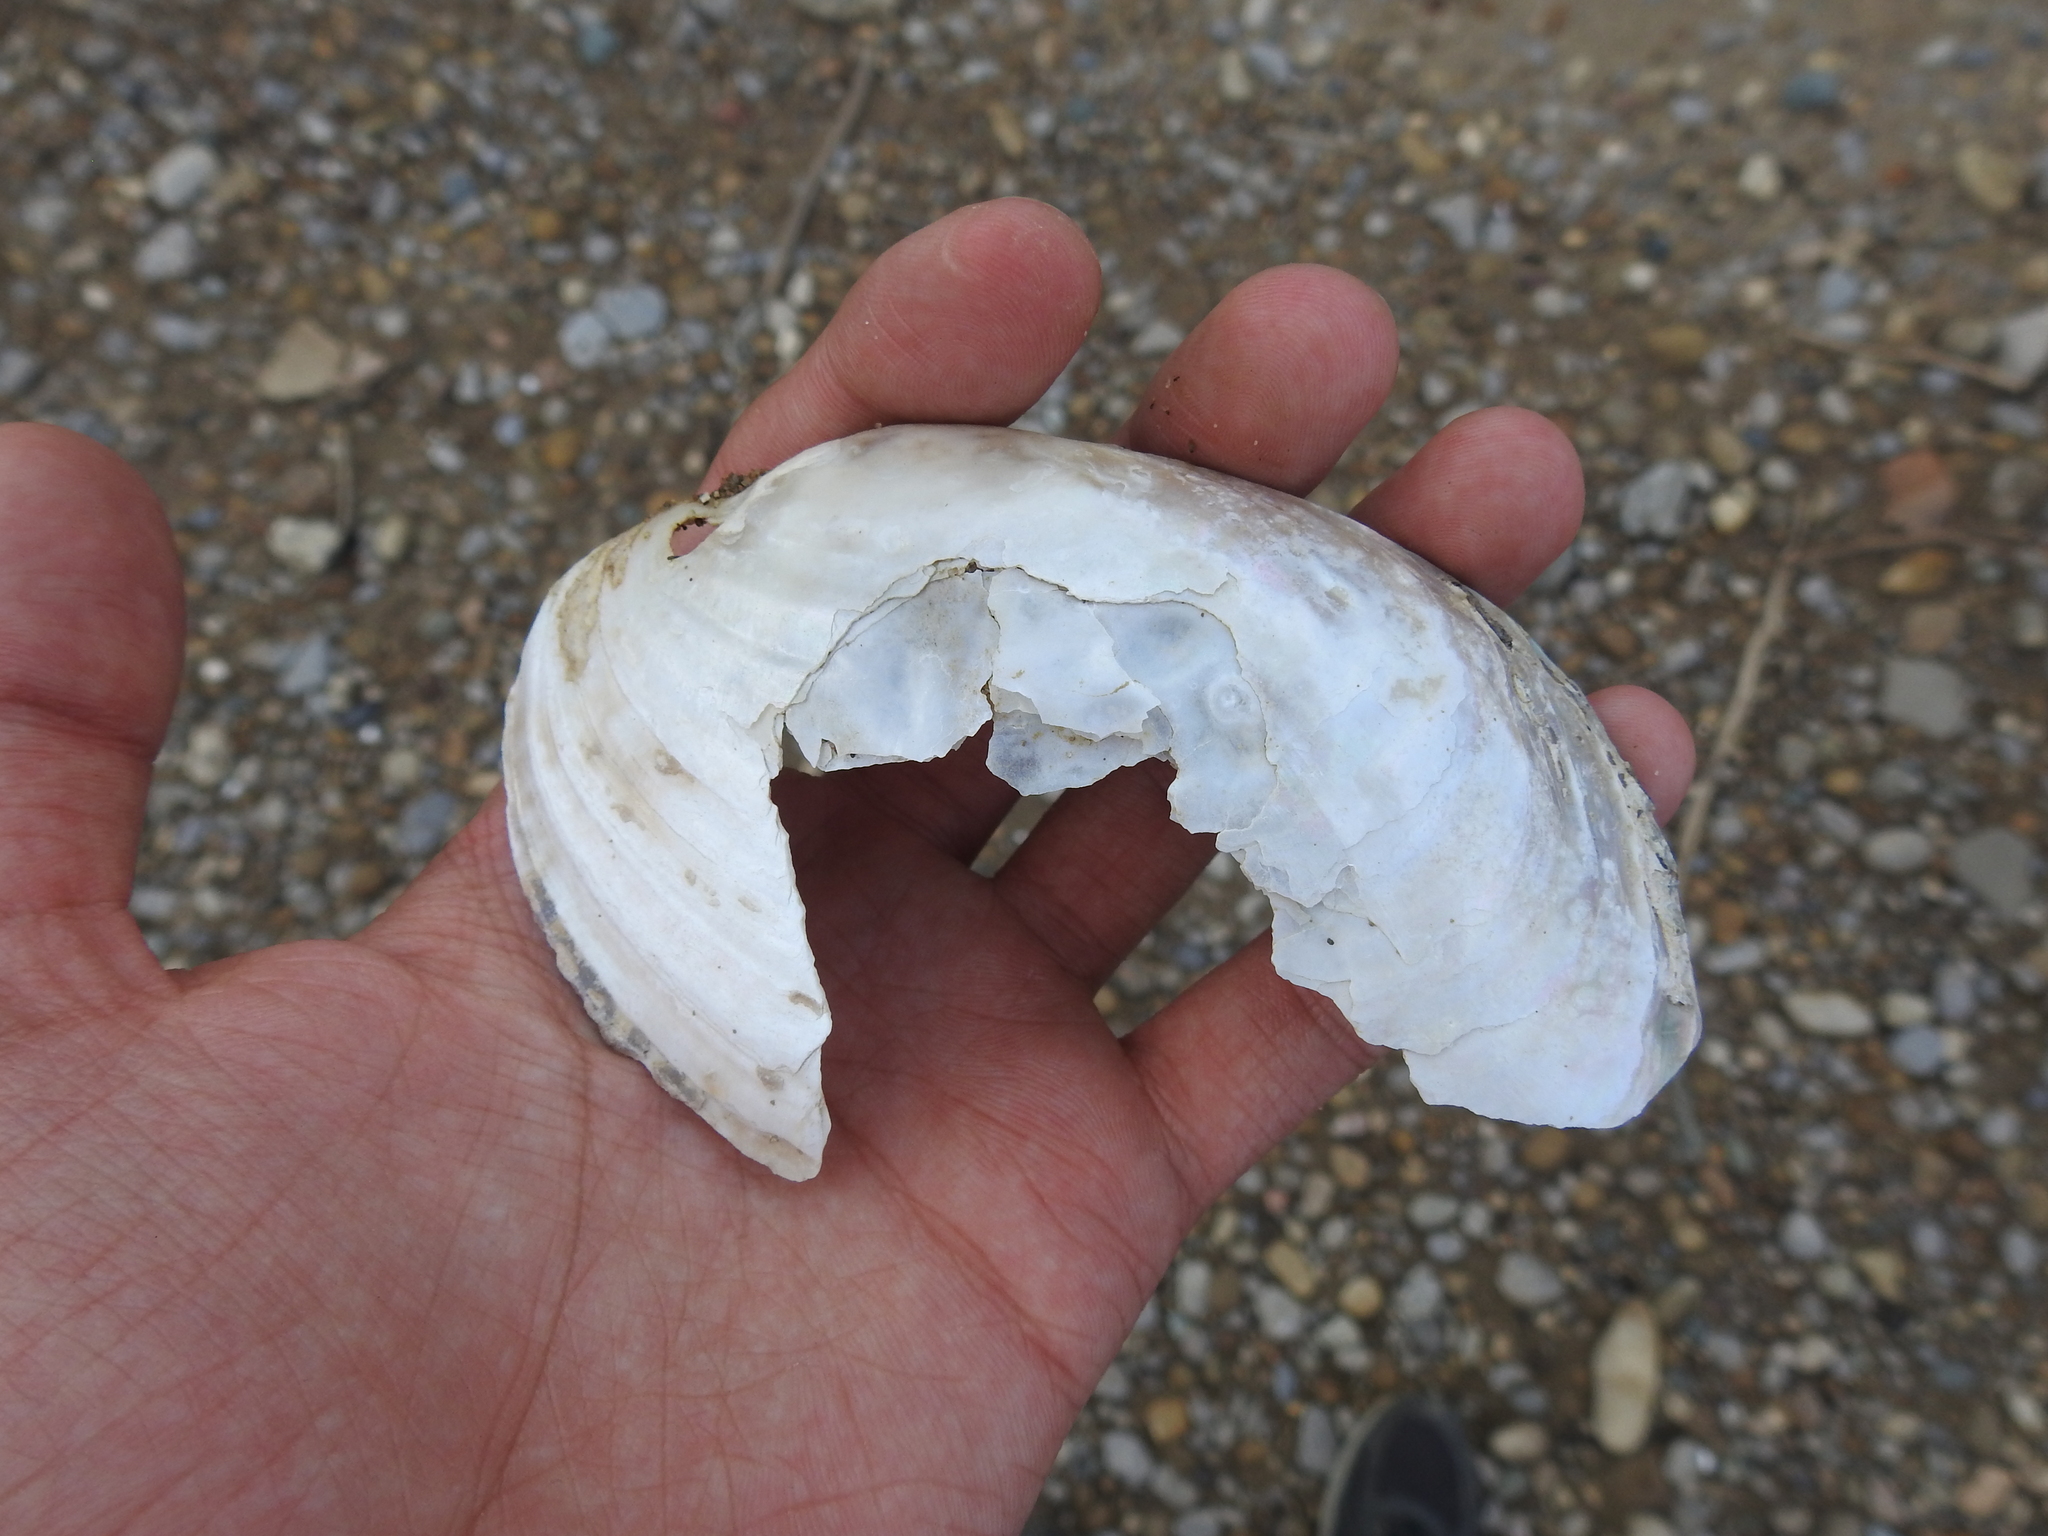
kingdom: Animalia
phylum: Mollusca
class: Bivalvia
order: Unionida
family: Unionidae
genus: Potamilus
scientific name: Potamilus fragilis
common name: Fragile papershell
